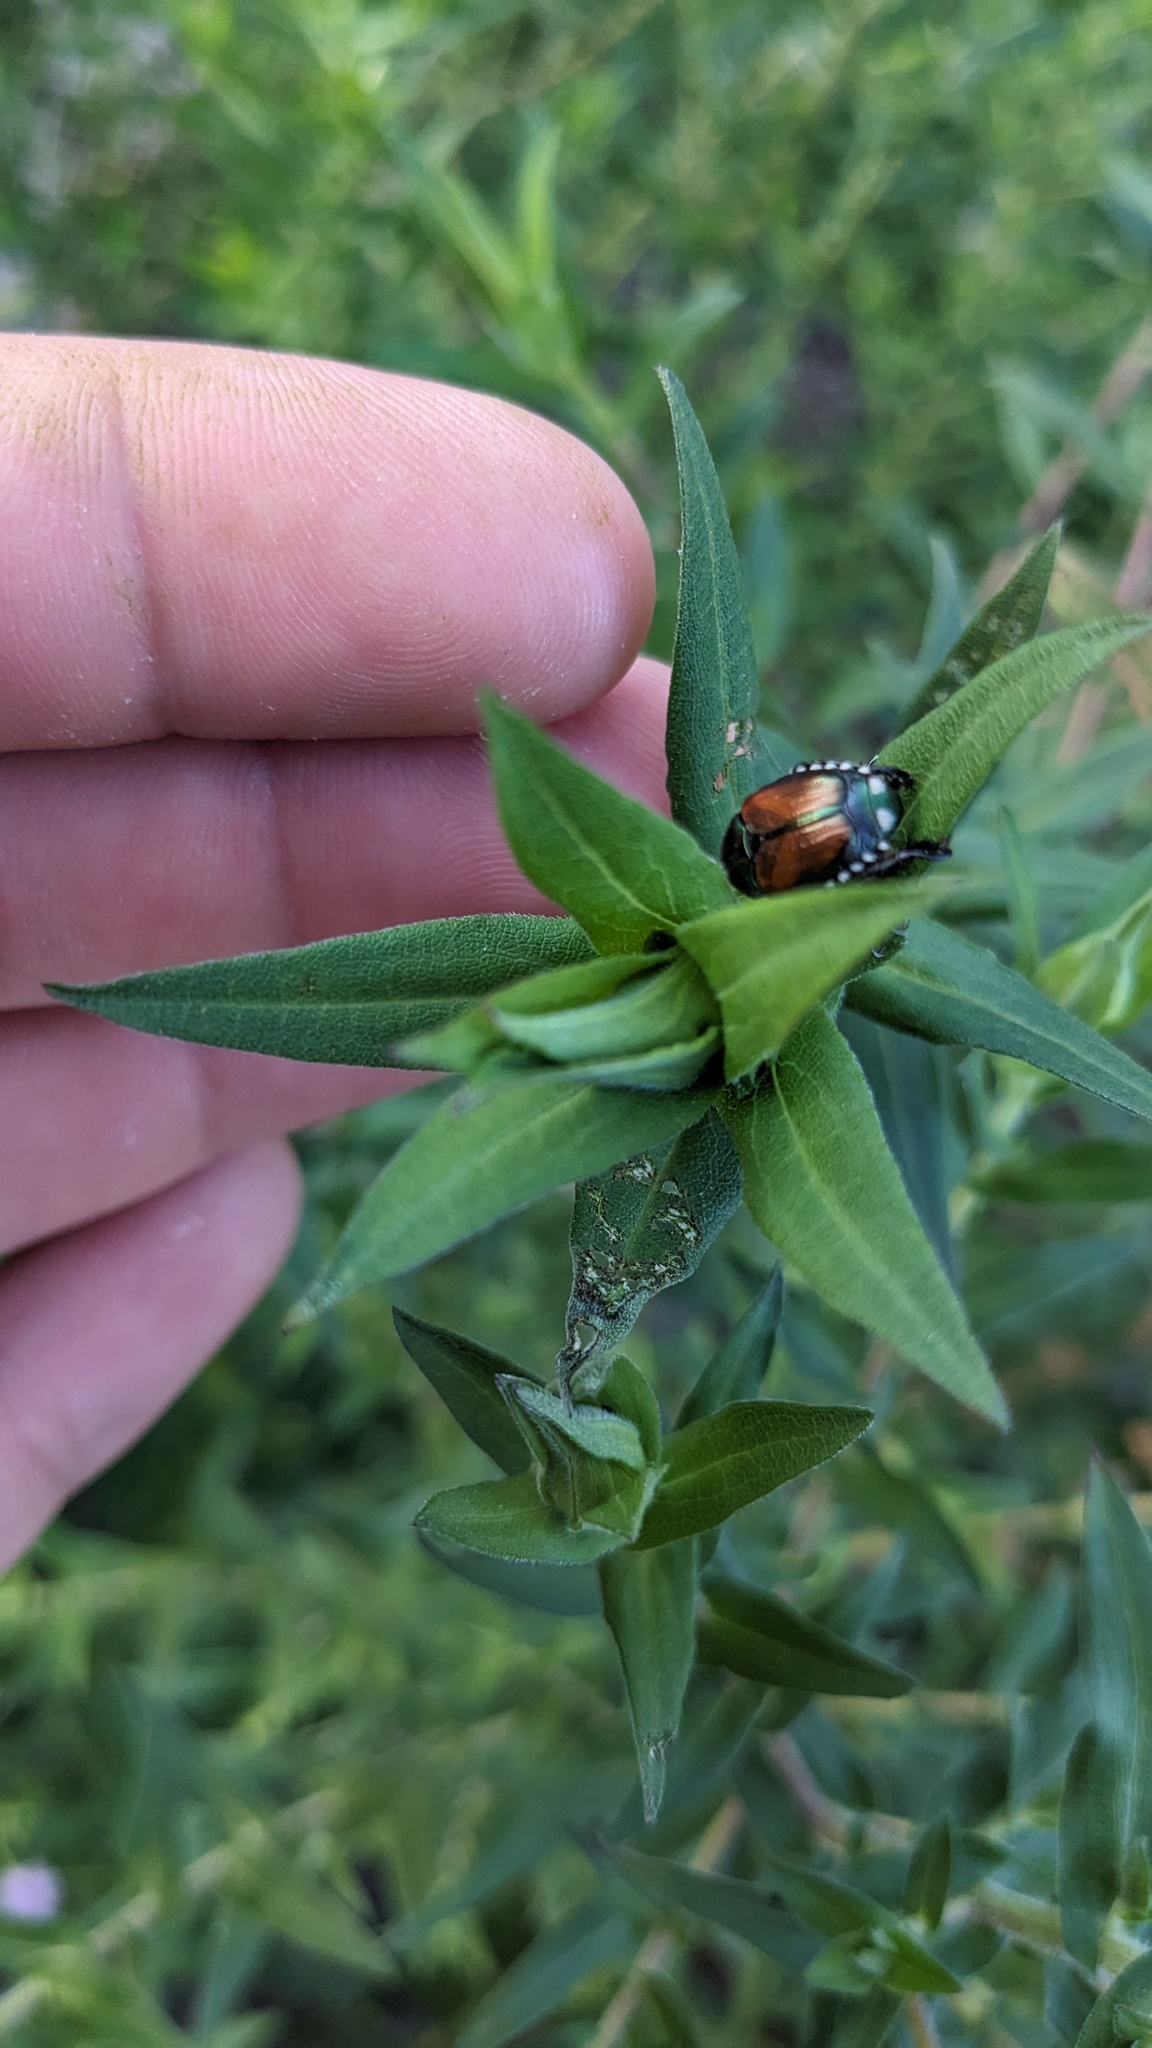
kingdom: Animalia
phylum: Arthropoda
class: Insecta
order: Coleoptera
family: Scarabaeidae
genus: Popillia
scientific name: Popillia japonica
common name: Japanese beetle
